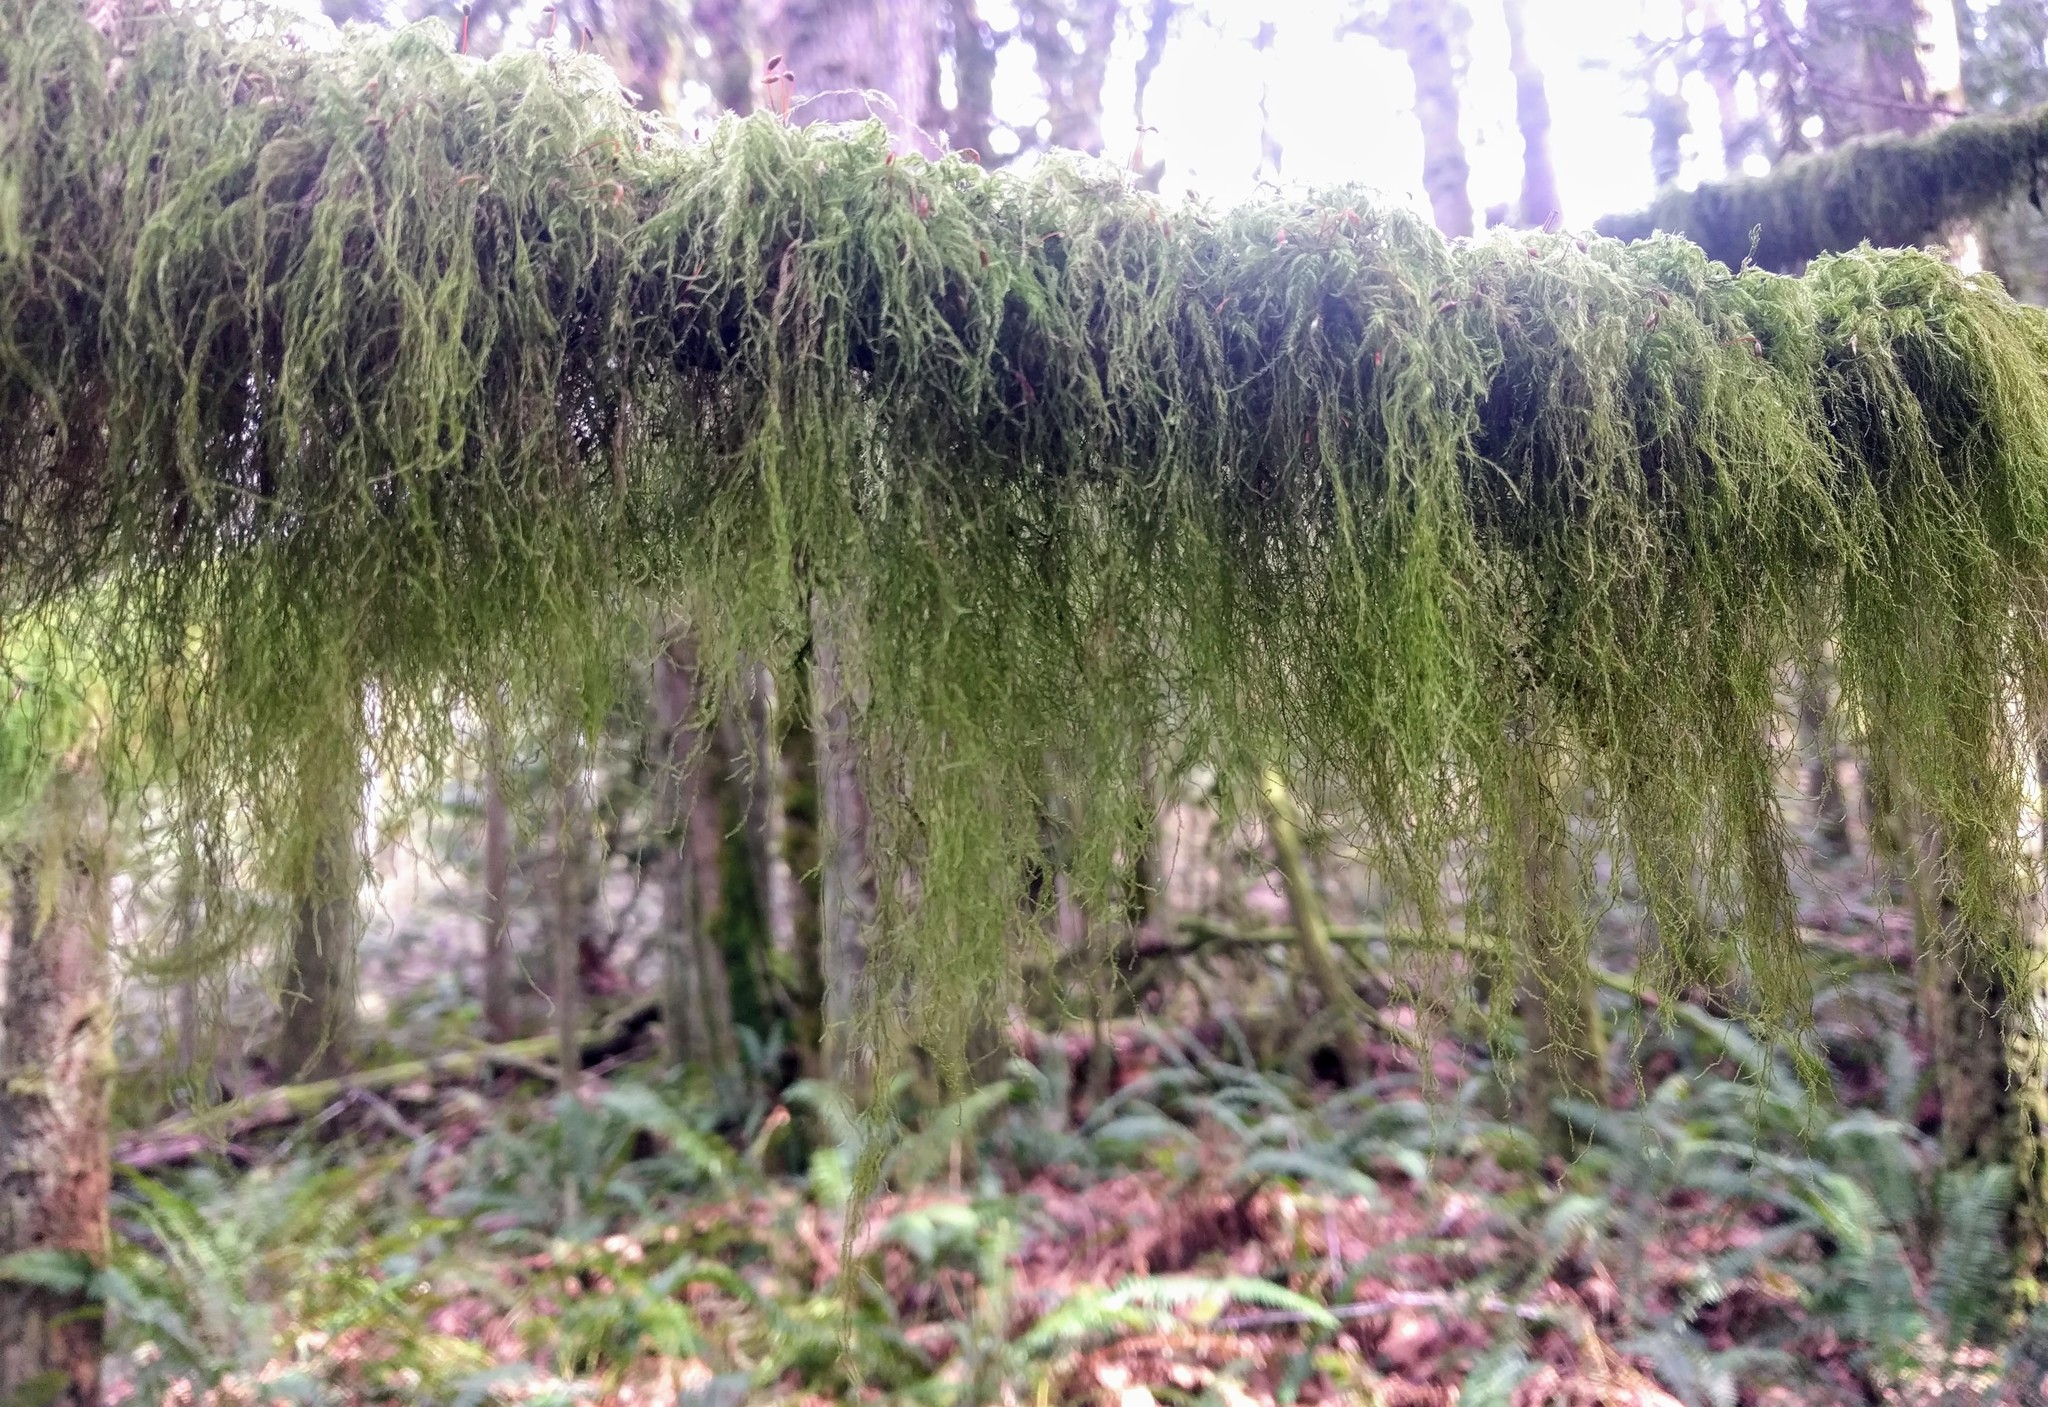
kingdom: Plantae
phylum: Bryophyta
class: Bryopsida
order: Hypnales
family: Lembophyllaceae
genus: Pseudisothecium
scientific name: Pseudisothecium stoloniferum
